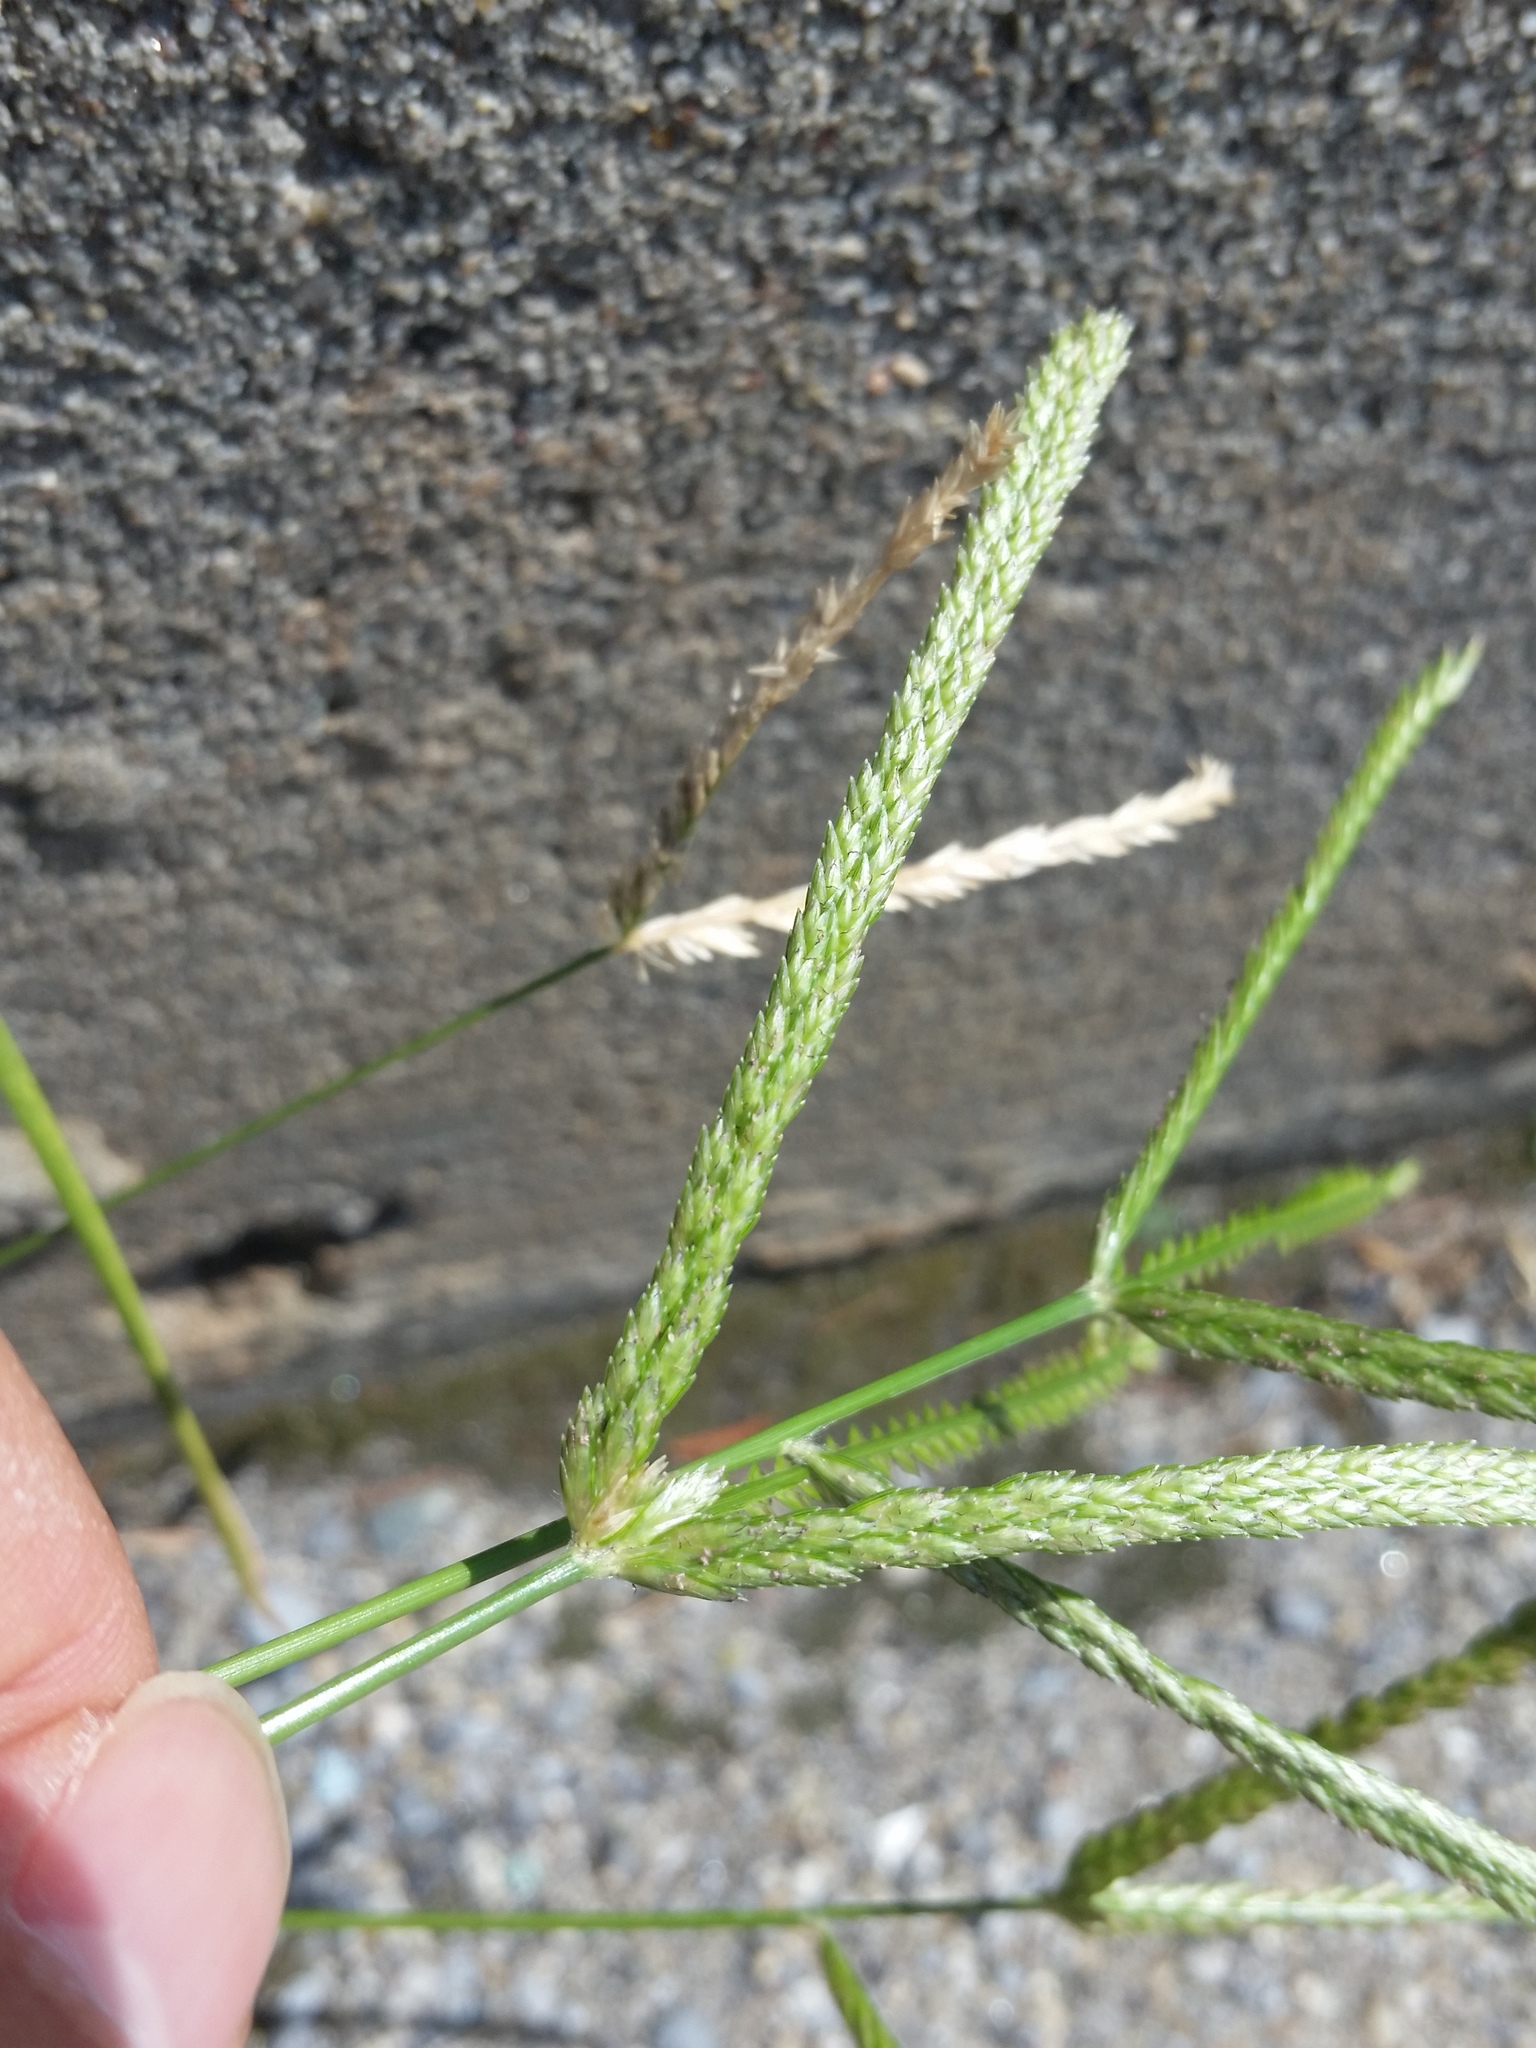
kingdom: Plantae
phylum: Tracheophyta
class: Liliopsida
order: Poales
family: Poaceae
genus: Eleusine
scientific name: Eleusine indica
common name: Yard-grass
